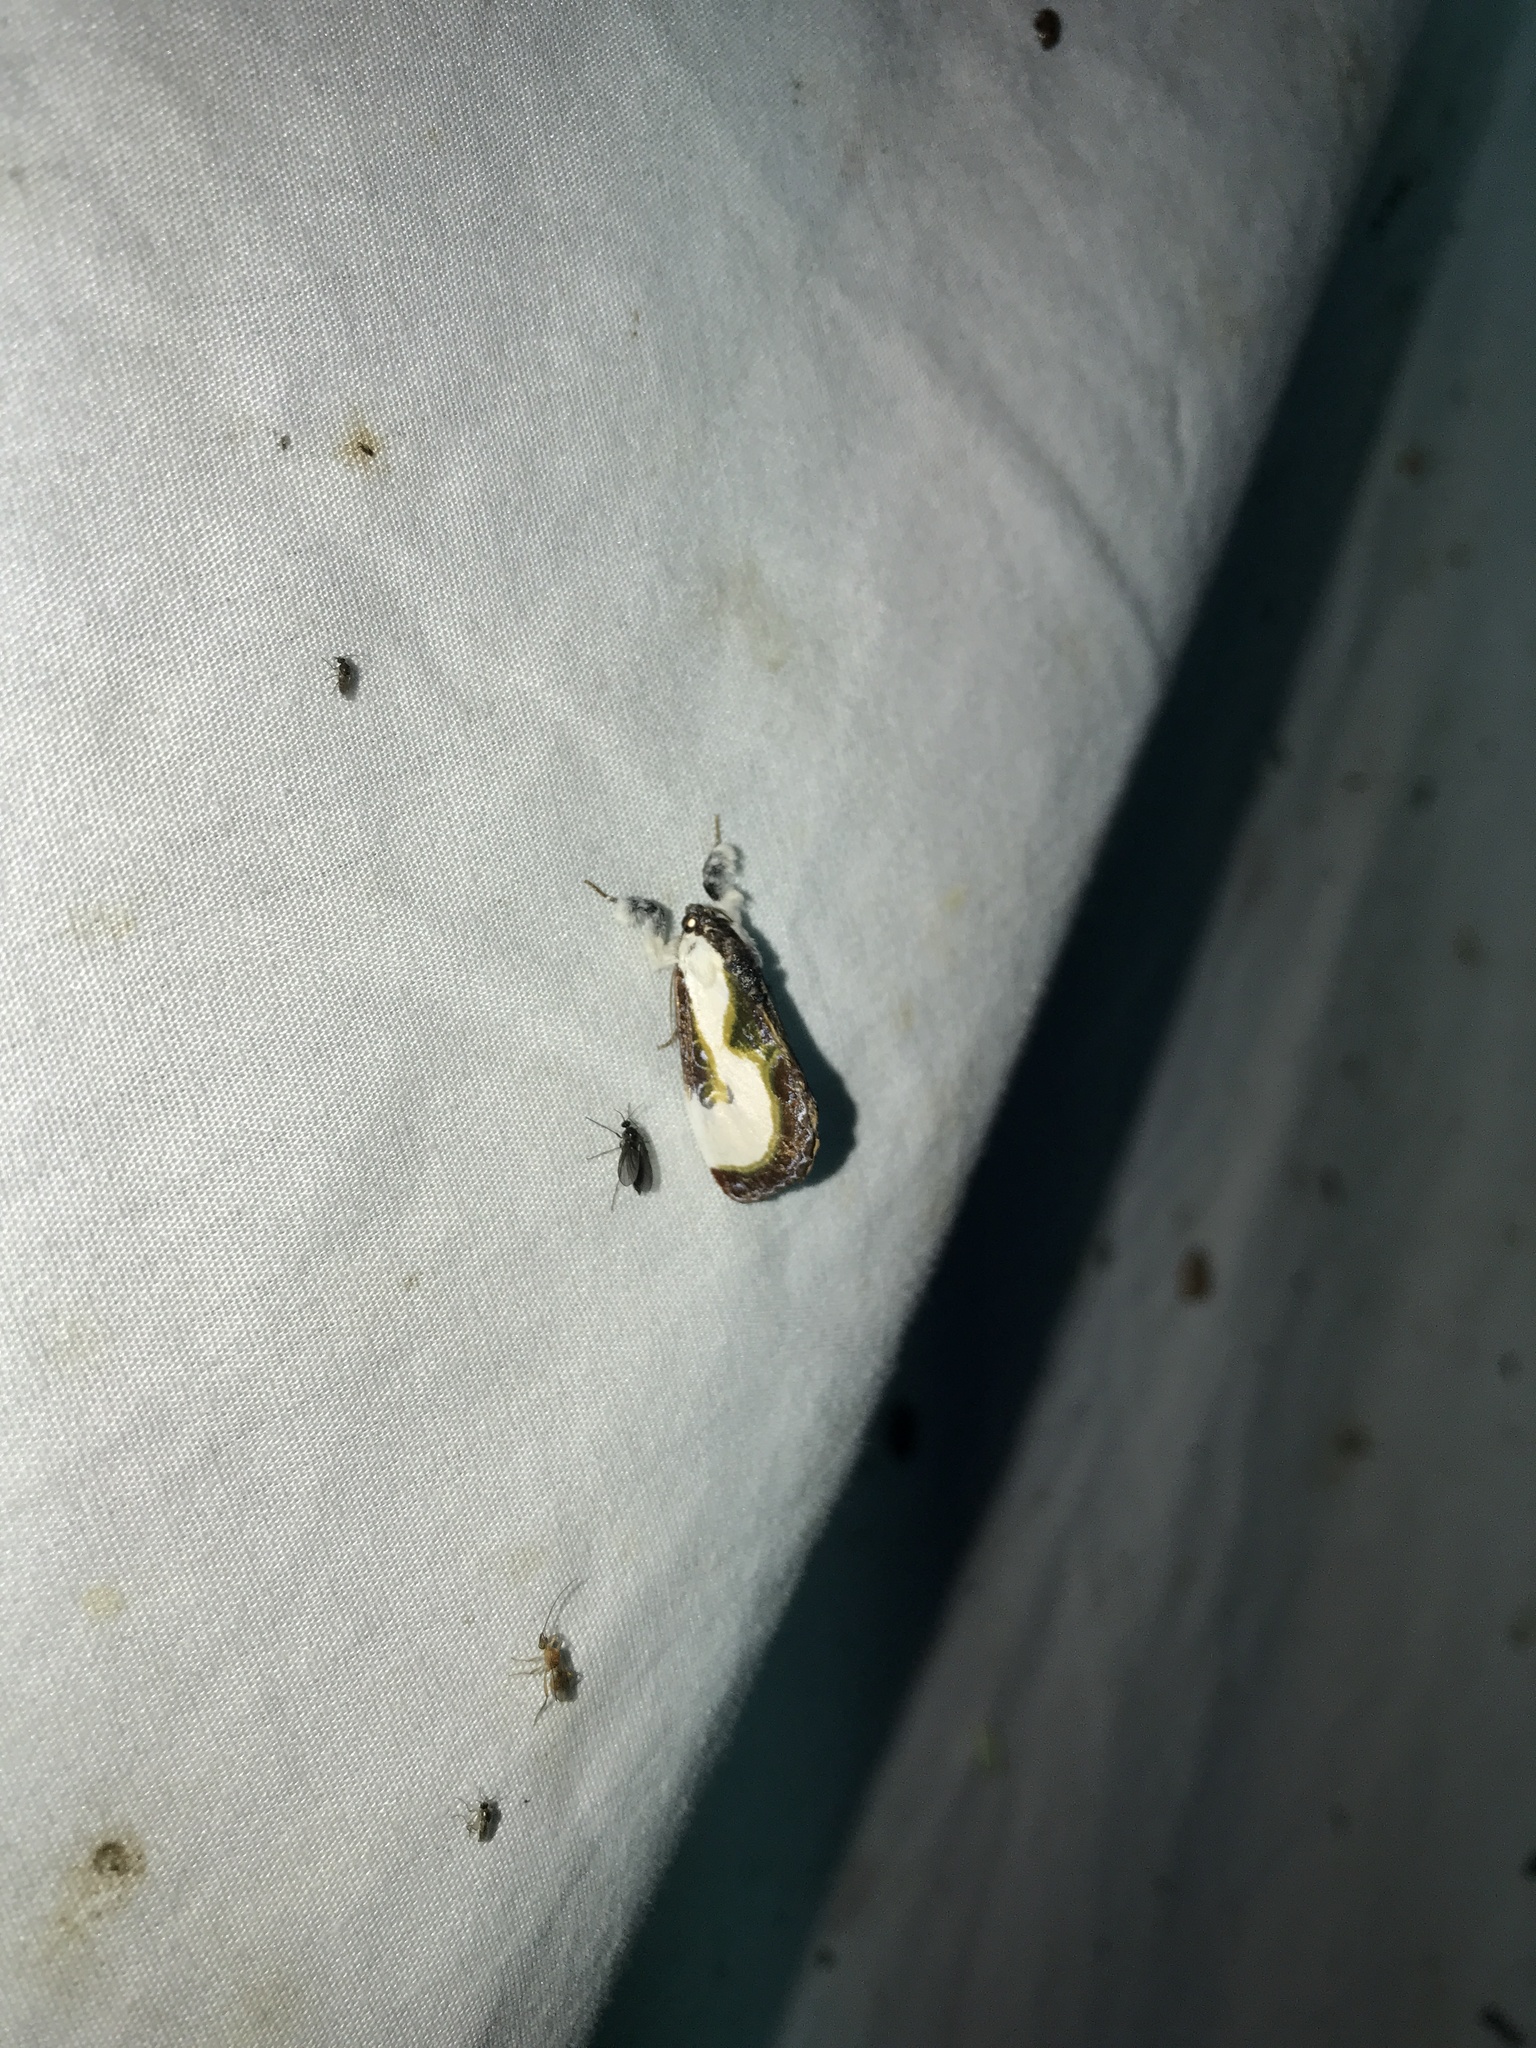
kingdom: Animalia
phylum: Arthropoda
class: Insecta
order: Lepidoptera
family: Noctuidae
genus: Eudryas
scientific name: Eudryas grata
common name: Beautiful wood-nymph
